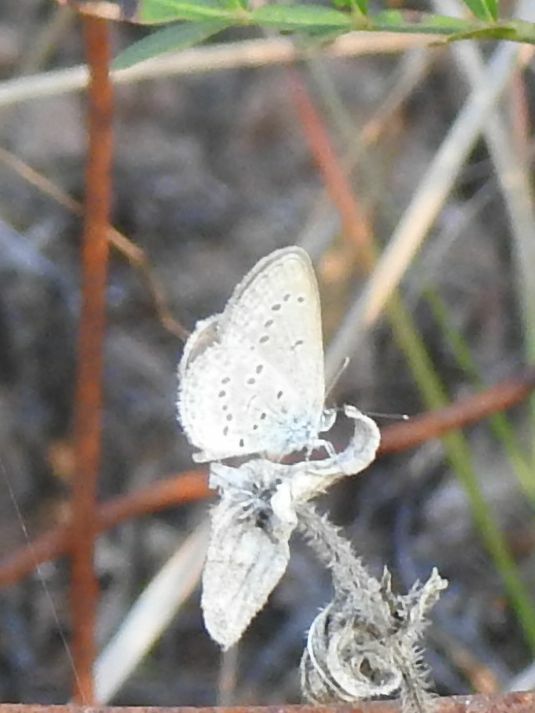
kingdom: Animalia
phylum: Arthropoda
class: Insecta
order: Lepidoptera
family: Lycaenidae
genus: Zizina
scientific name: Zizina otis
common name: Lesser grass blue
